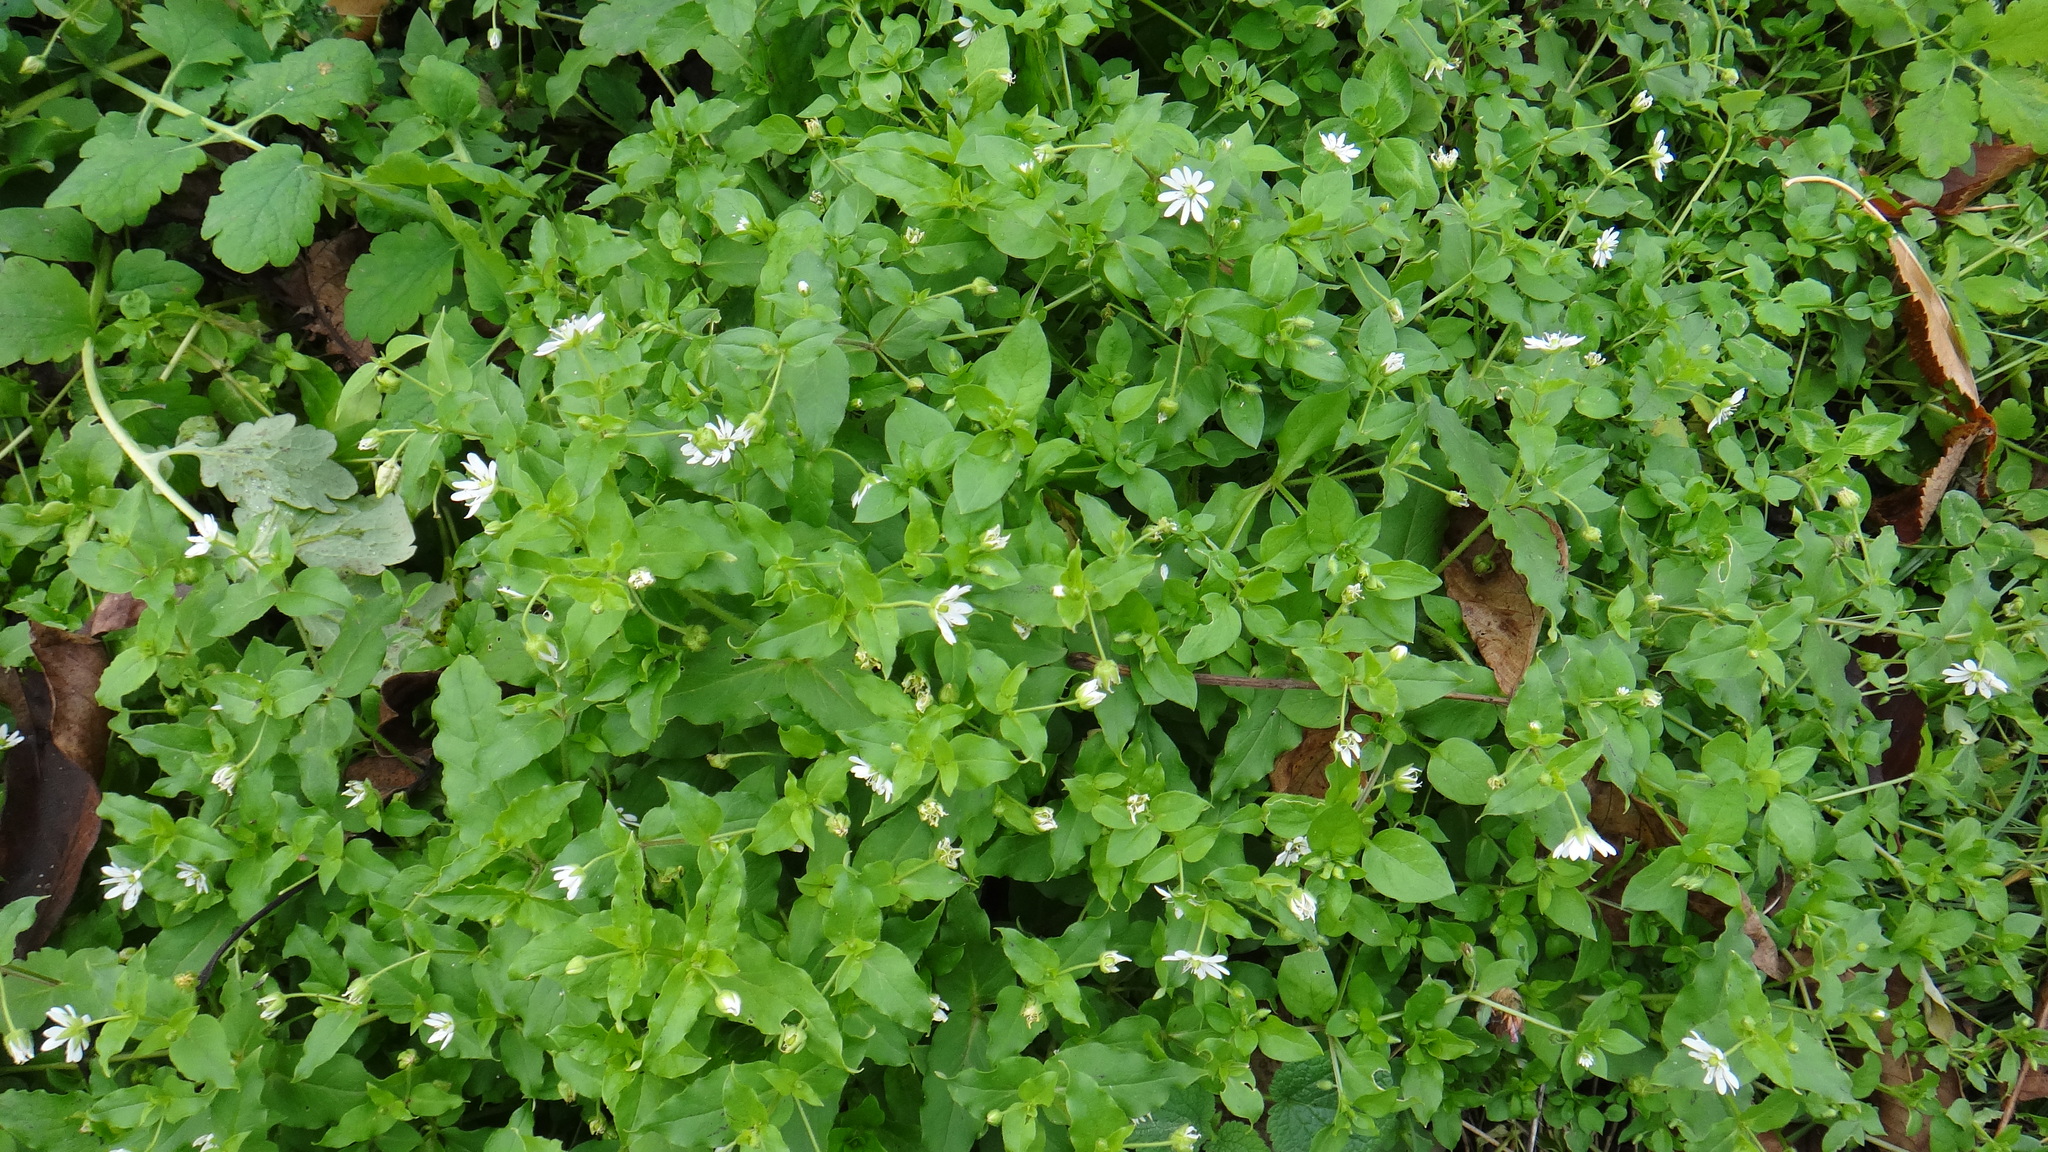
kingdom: Plantae
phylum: Tracheophyta
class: Magnoliopsida
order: Caryophyllales
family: Caryophyllaceae
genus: Stellaria
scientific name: Stellaria aquatica
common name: Water chickweed
